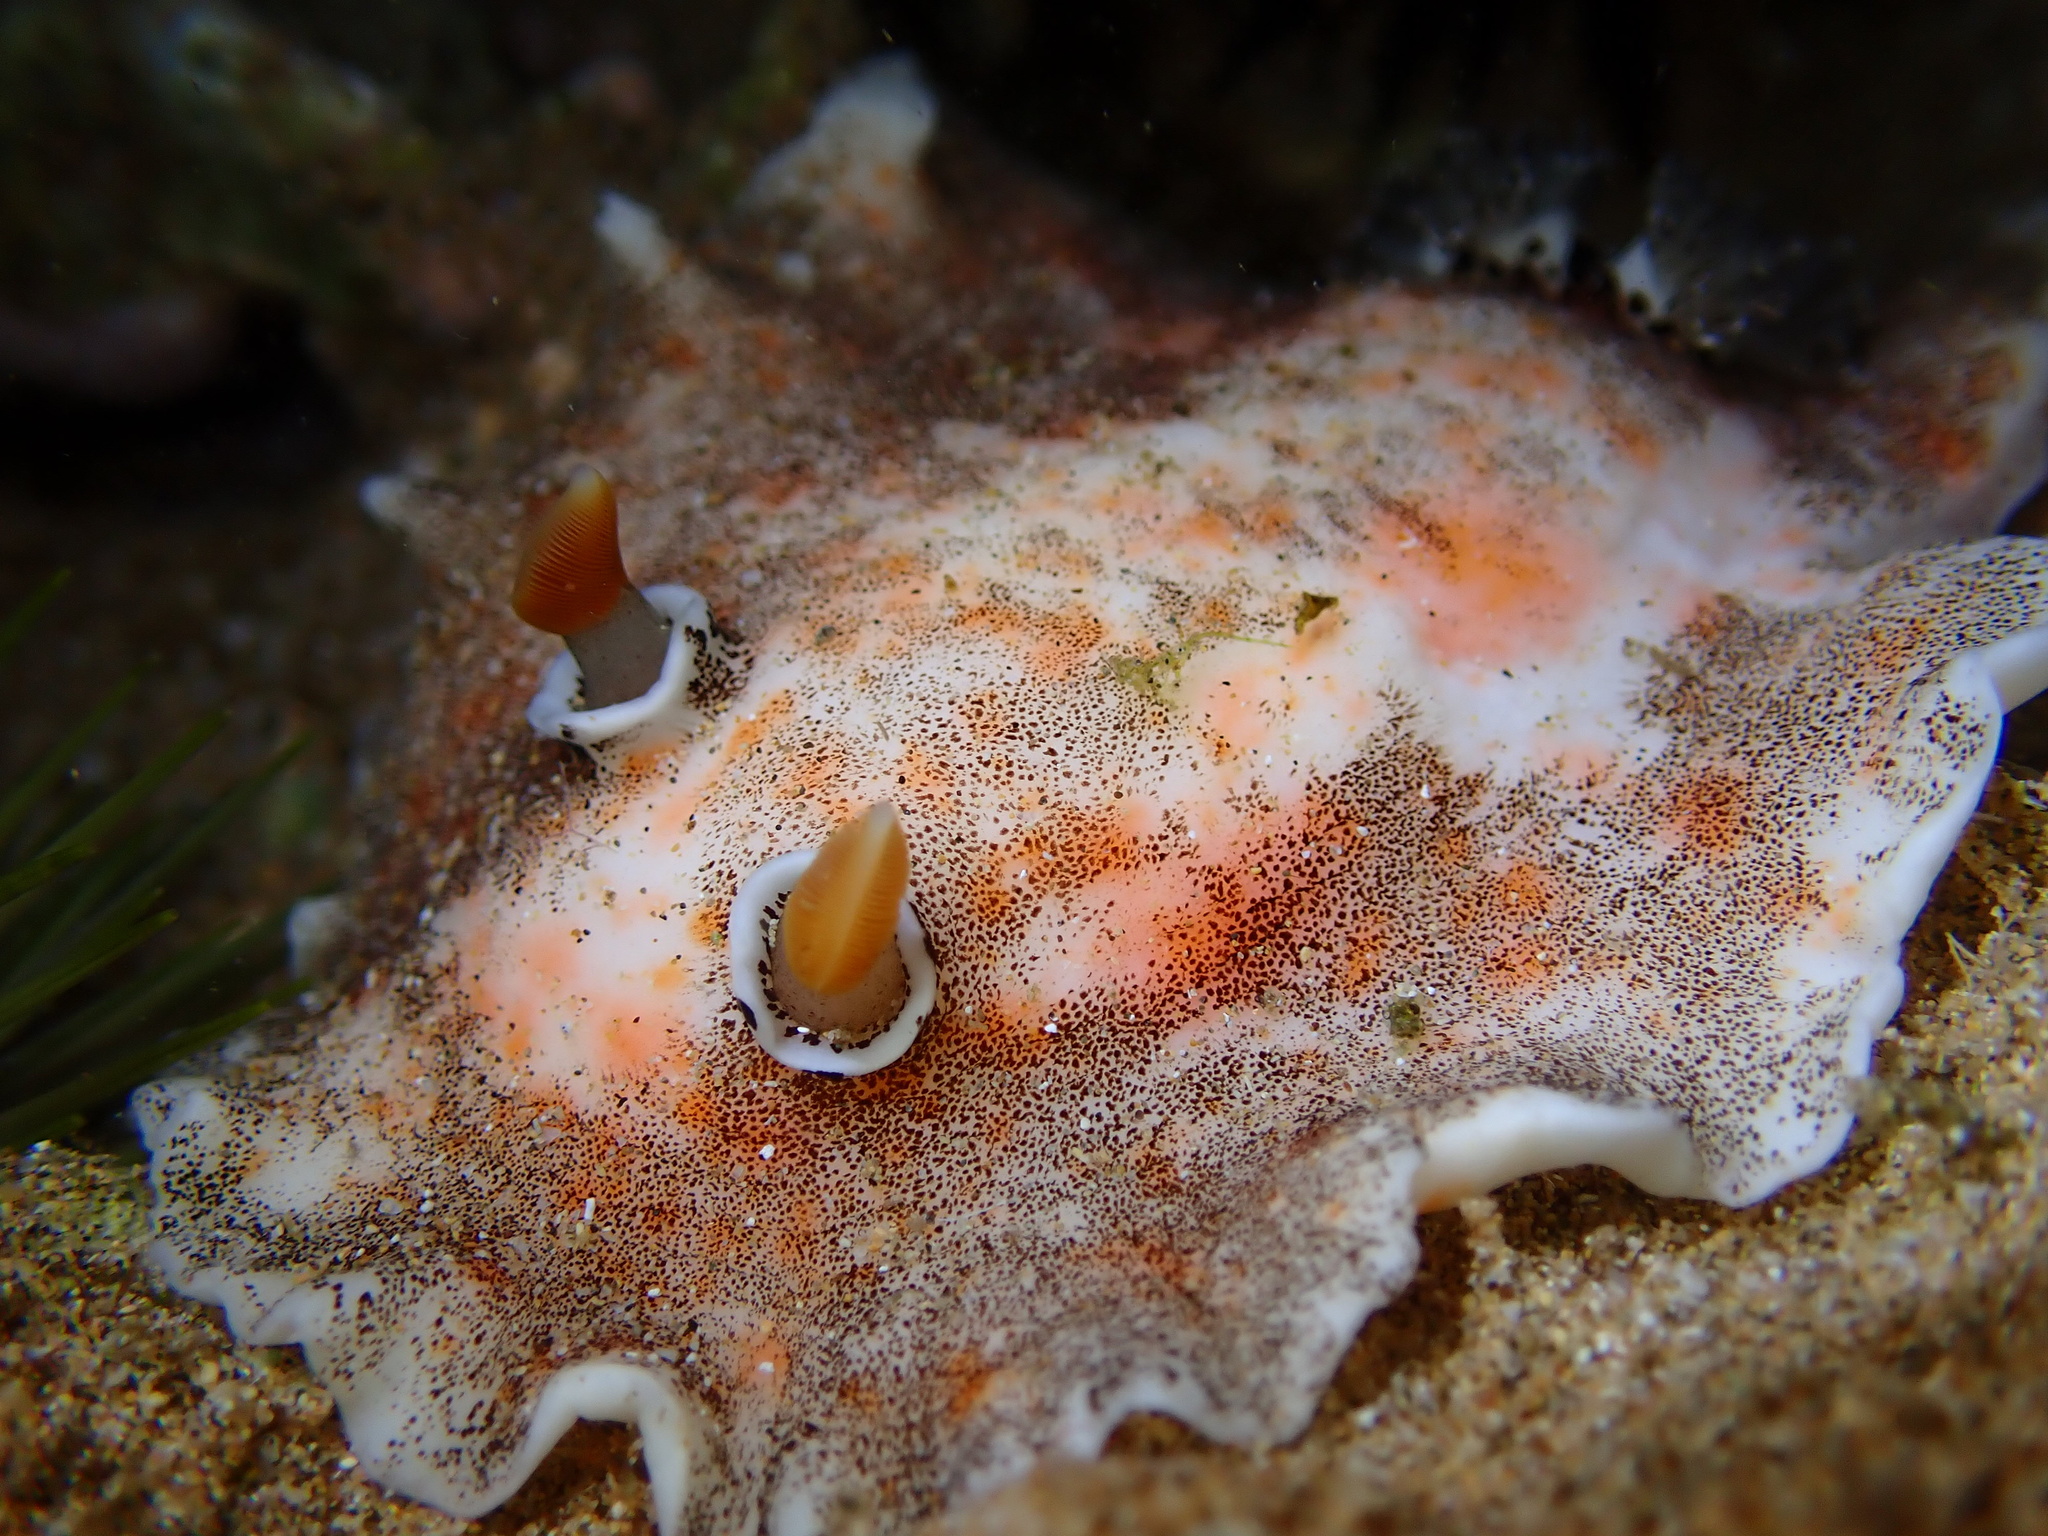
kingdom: Animalia
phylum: Mollusca
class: Gastropoda
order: Nudibranchia
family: Discodorididae
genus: Platydoris
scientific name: Platydoris formosa
